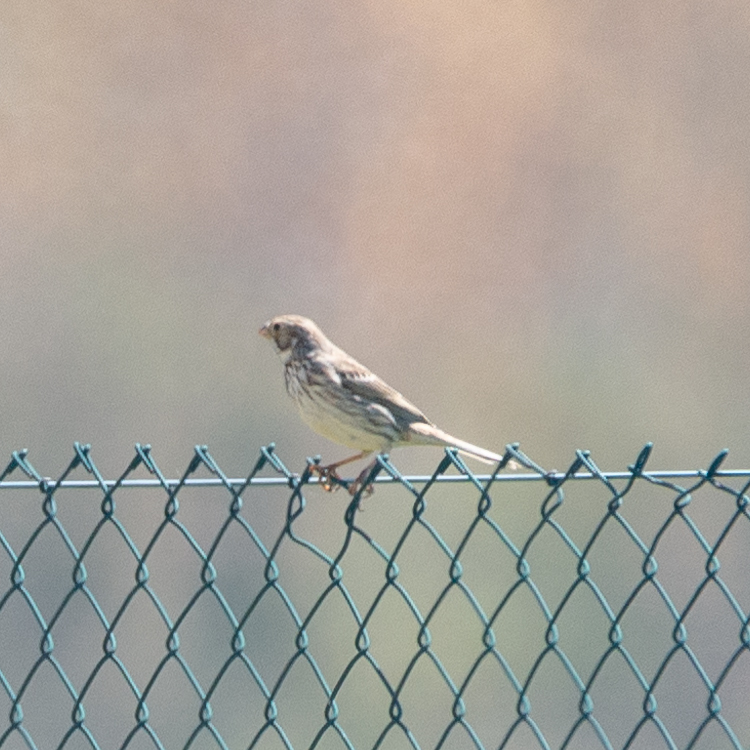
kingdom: Animalia
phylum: Chordata
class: Aves
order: Passeriformes
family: Emberizidae
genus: Emberiza
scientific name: Emberiza calandra
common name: Corn bunting
